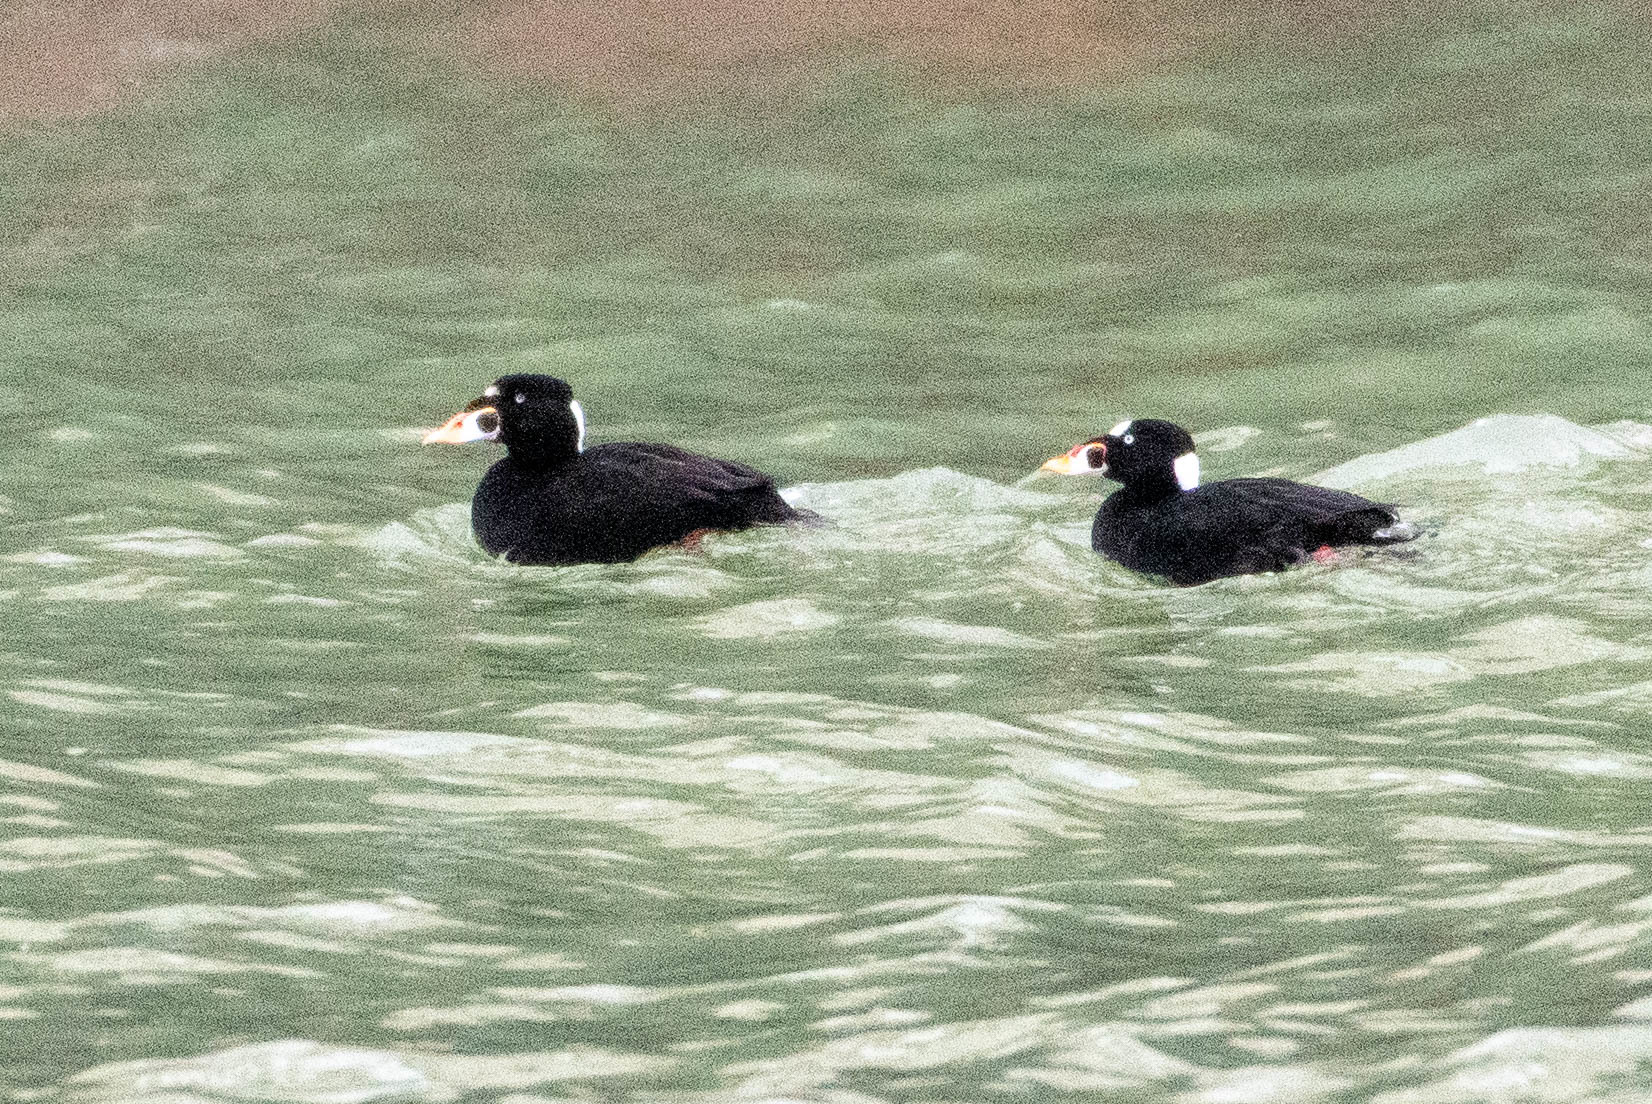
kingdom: Animalia
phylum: Chordata
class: Aves
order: Anseriformes
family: Anatidae
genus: Melanitta
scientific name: Melanitta perspicillata
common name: Surf scoter
